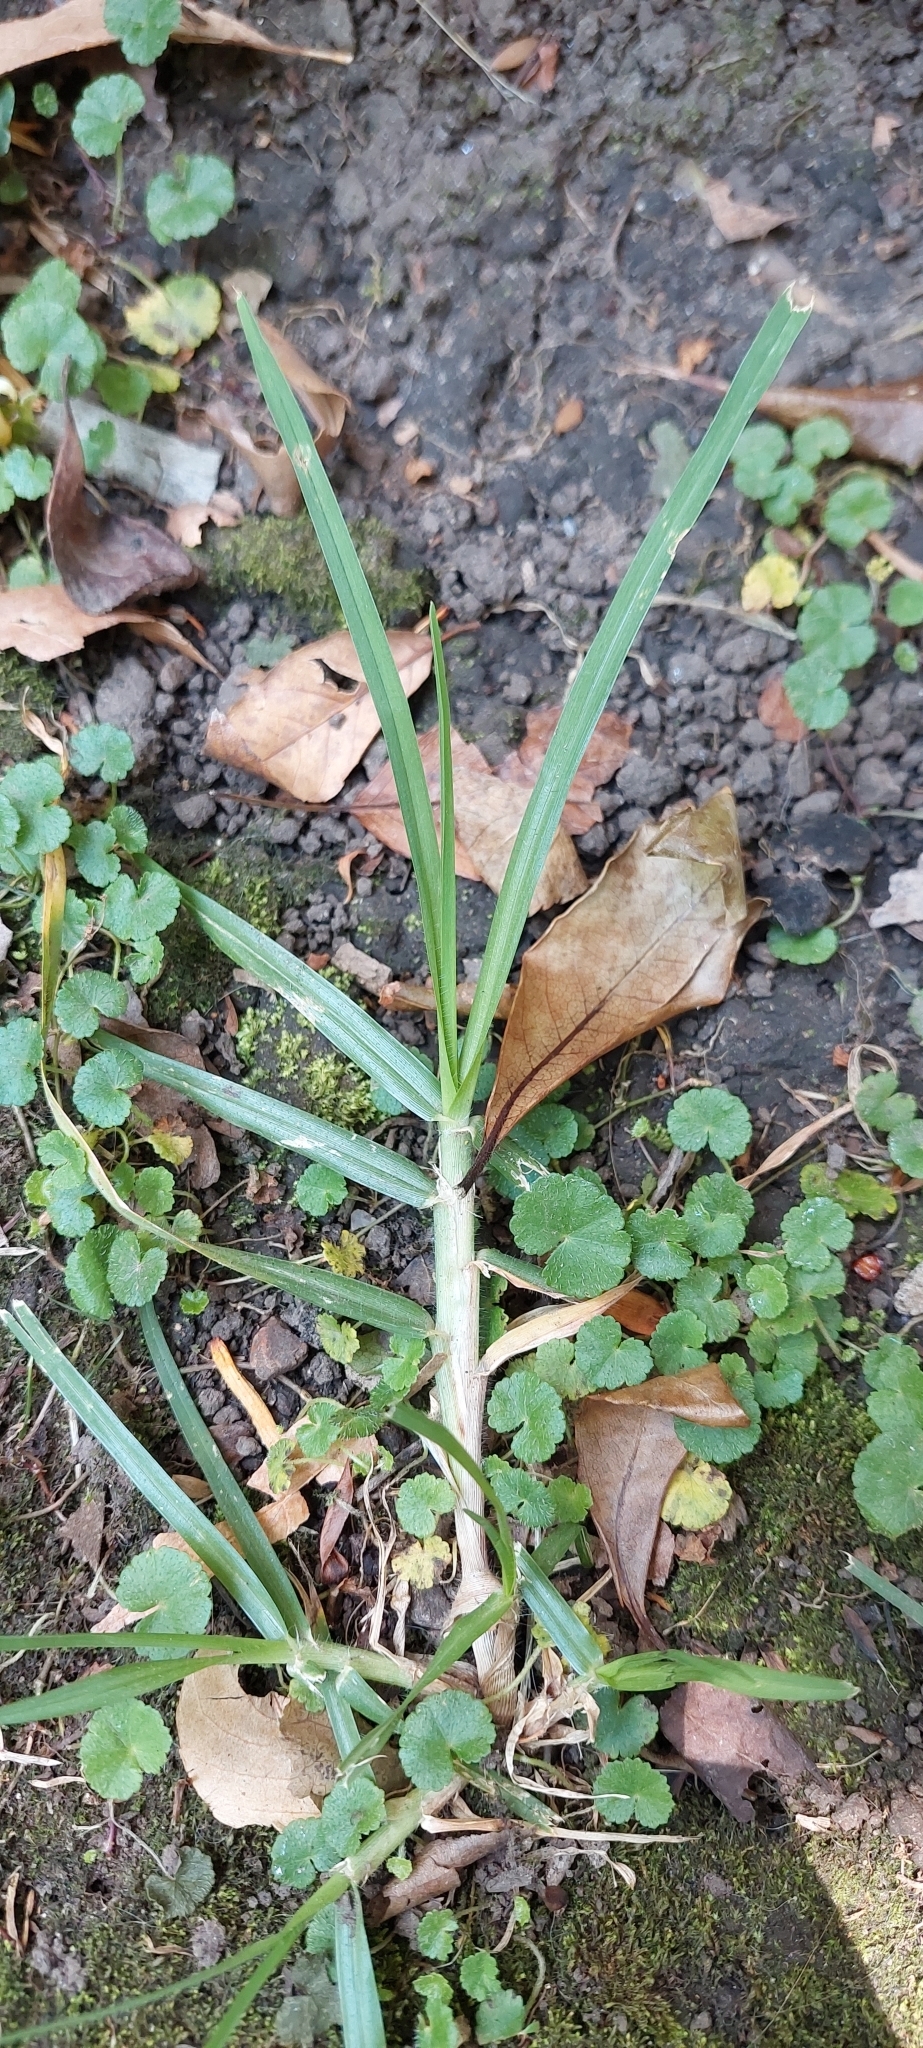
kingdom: Plantae
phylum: Tracheophyta
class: Liliopsida
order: Poales
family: Poaceae
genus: Cenchrus
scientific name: Cenchrus clandestinus
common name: Kikuyugrass
